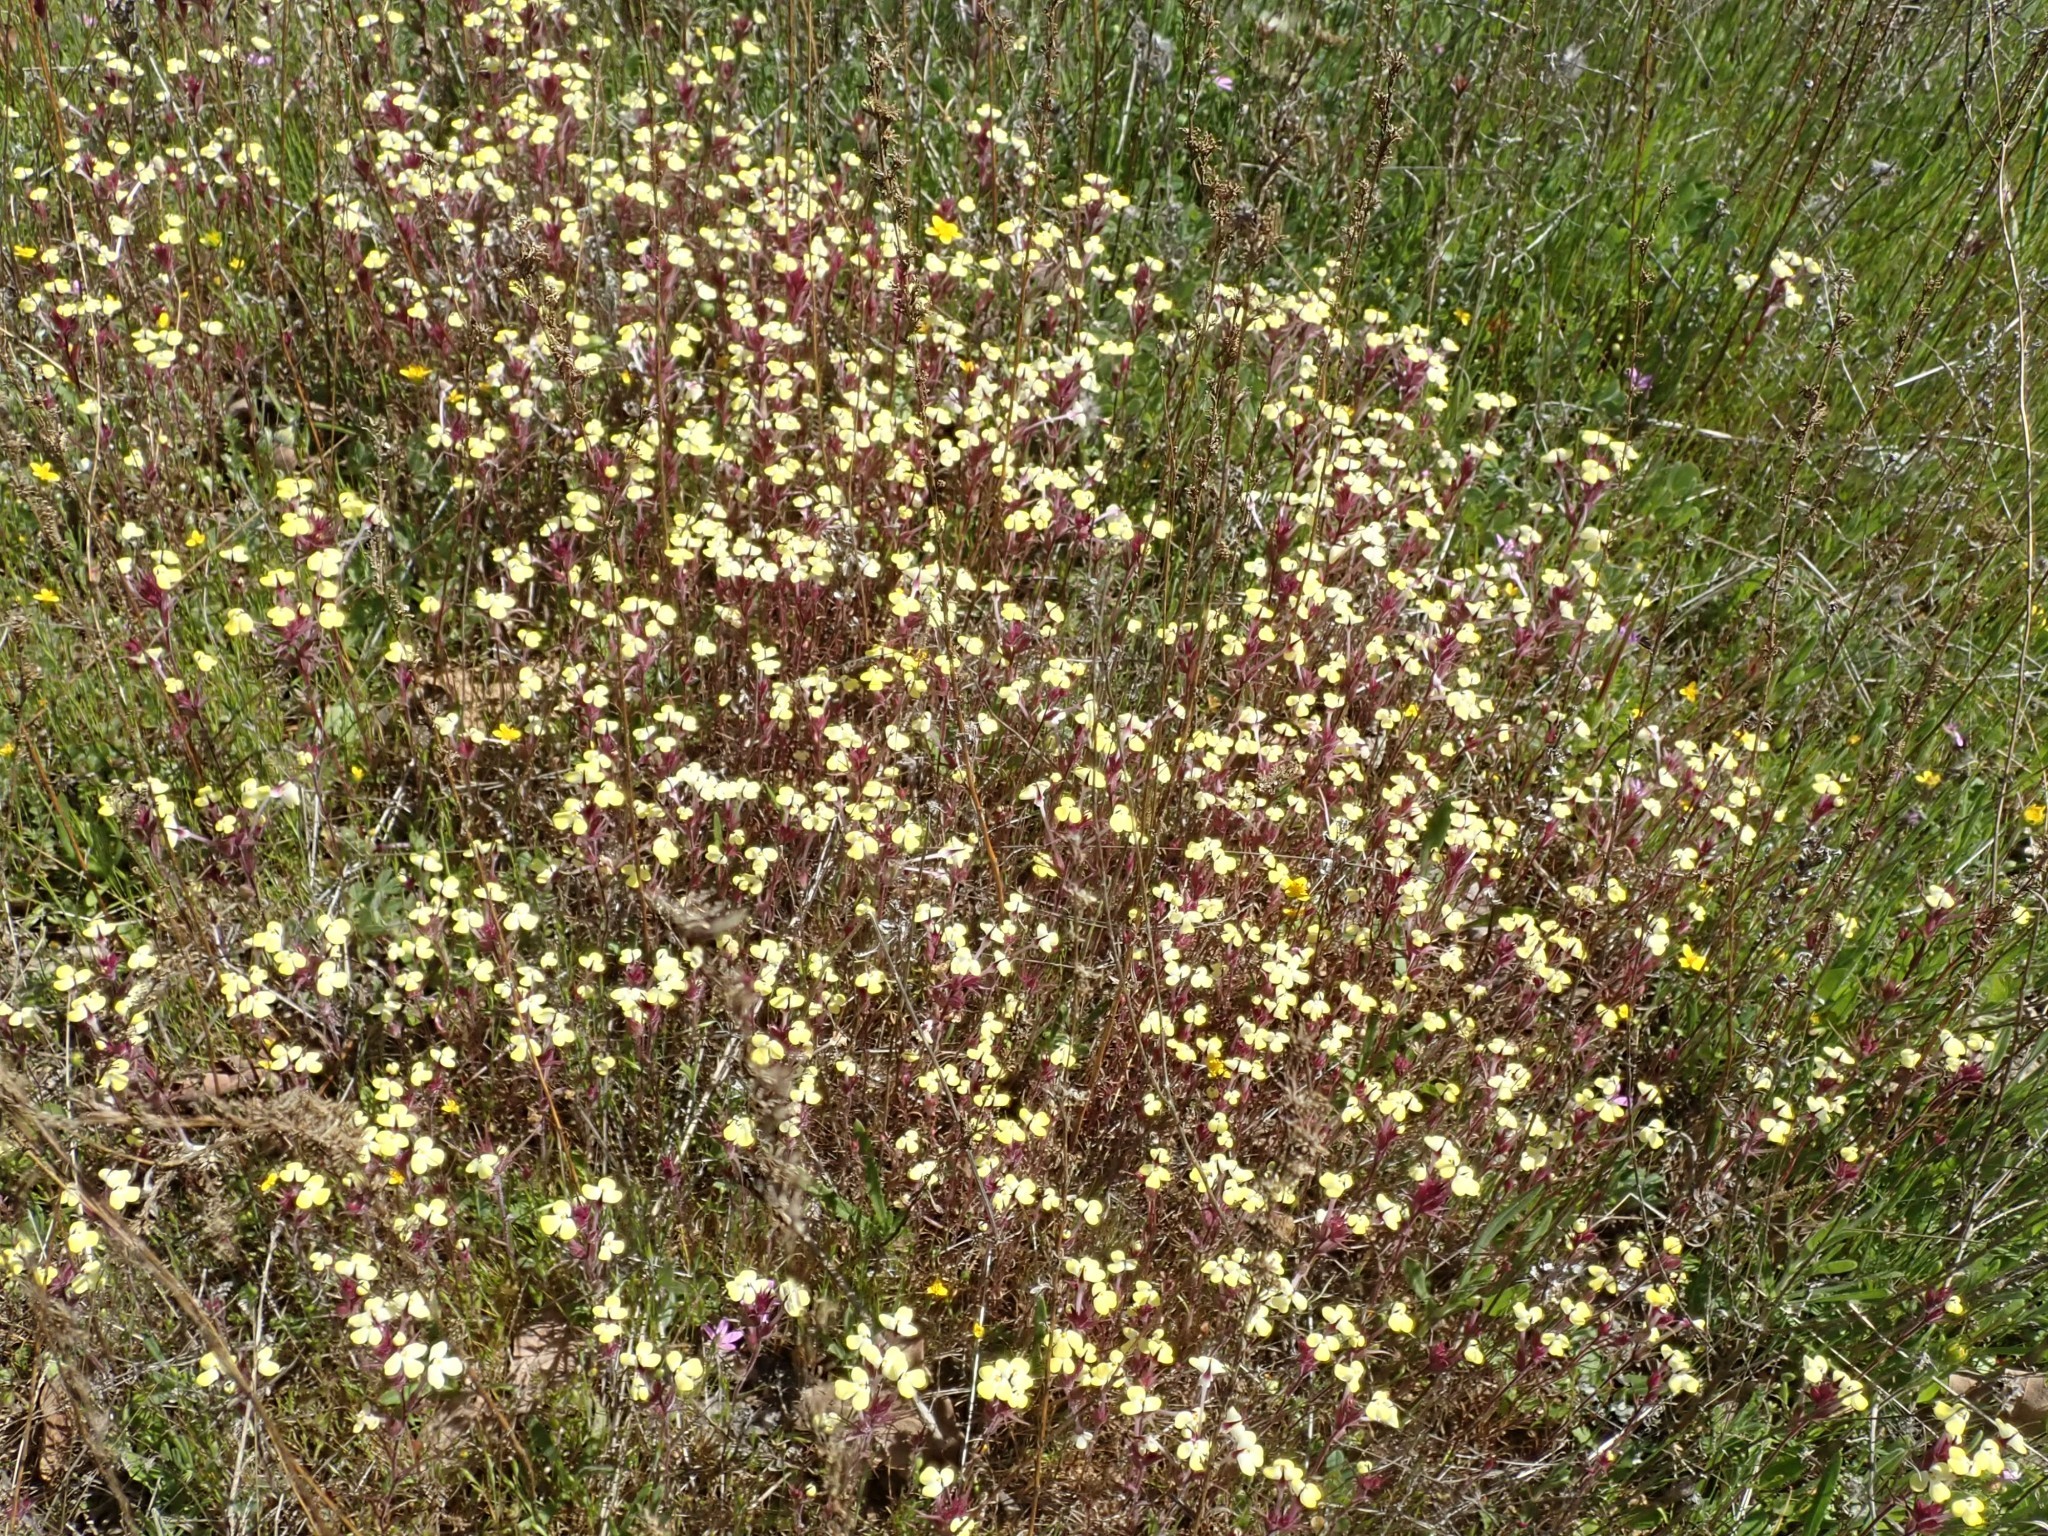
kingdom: Plantae
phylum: Tracheophyta
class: Magnoliopsida
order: Lamiales
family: Orobanchaceae
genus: Triphysaria
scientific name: Triphysaria eriantha
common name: Johnny-tuck
